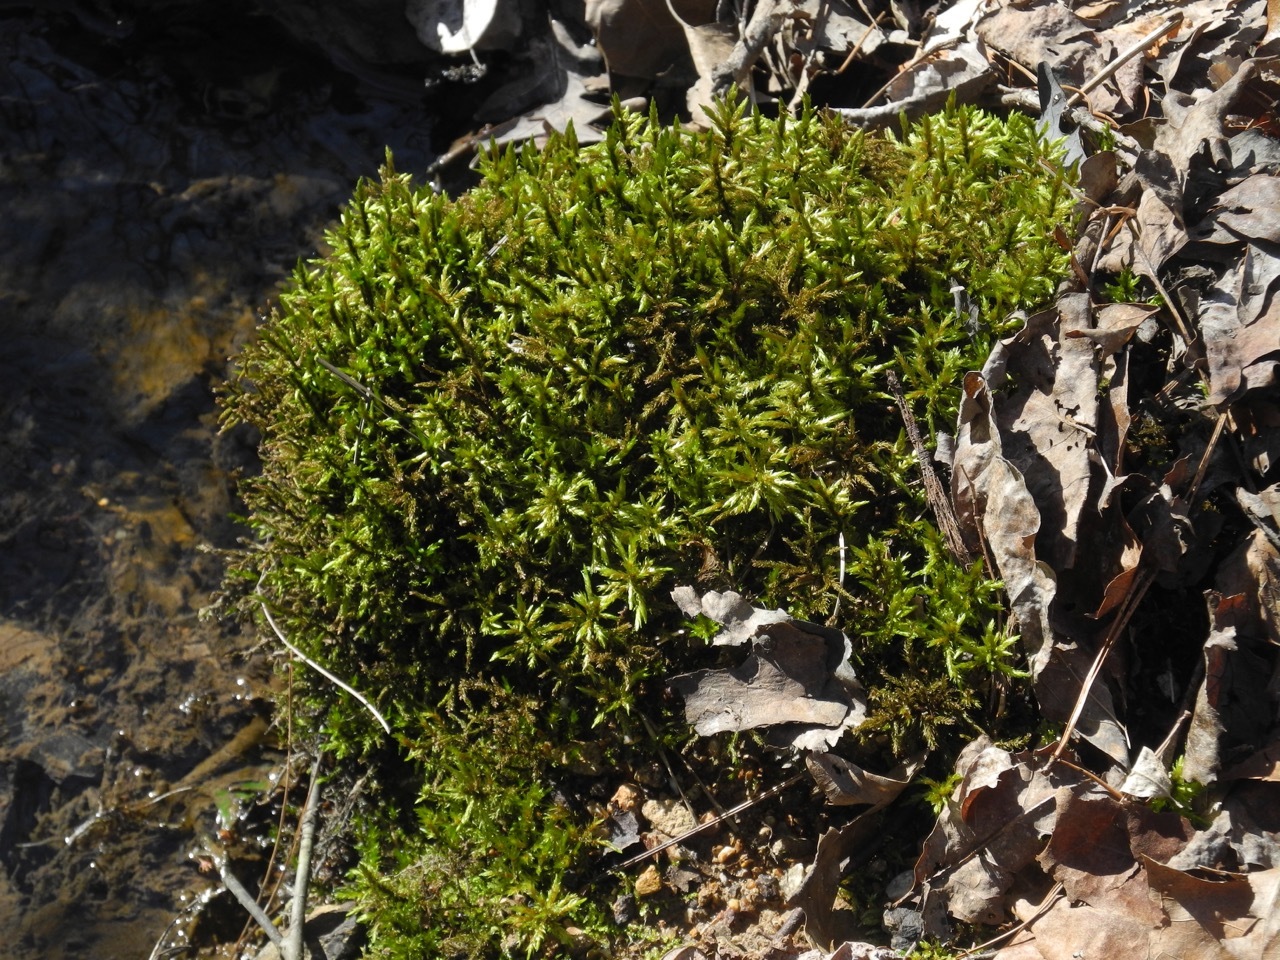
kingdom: Plantae
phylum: Bryophyta
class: Bryopsida
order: Hypnales
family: Climaciaceae
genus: Climacium
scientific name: Climacium americanum
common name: American tree moss
